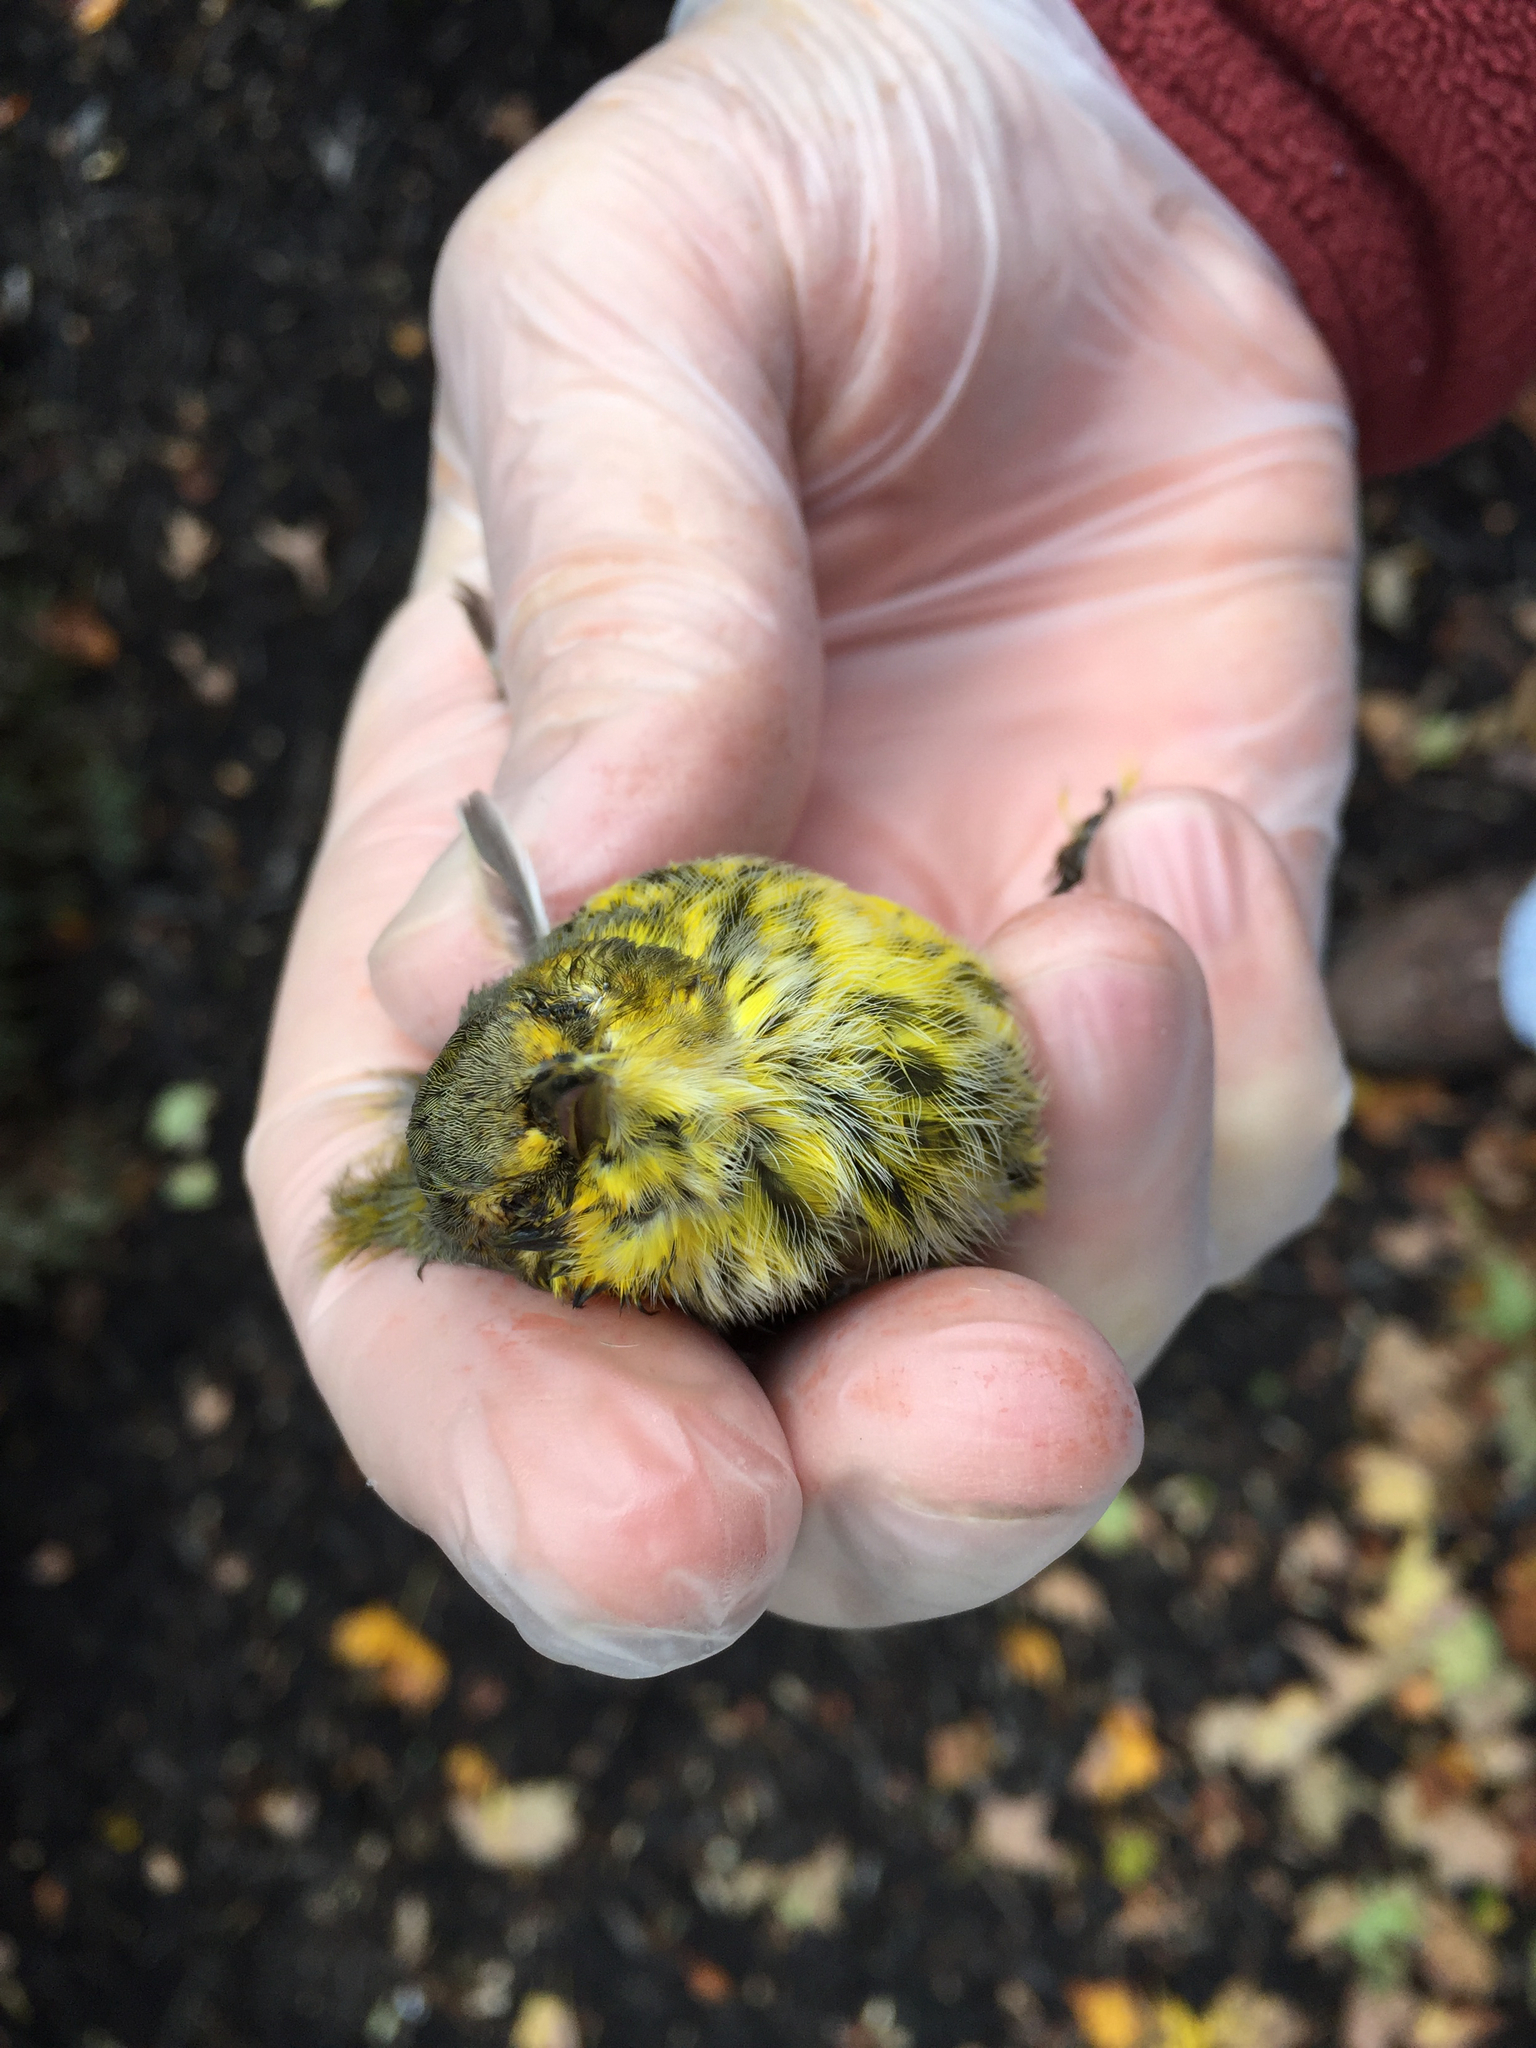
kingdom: Animalia
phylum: Chordata
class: Aves
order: Passeriformes
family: Parulidae
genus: Setophaga
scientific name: Setophaga tigrina
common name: Cape may warbler
